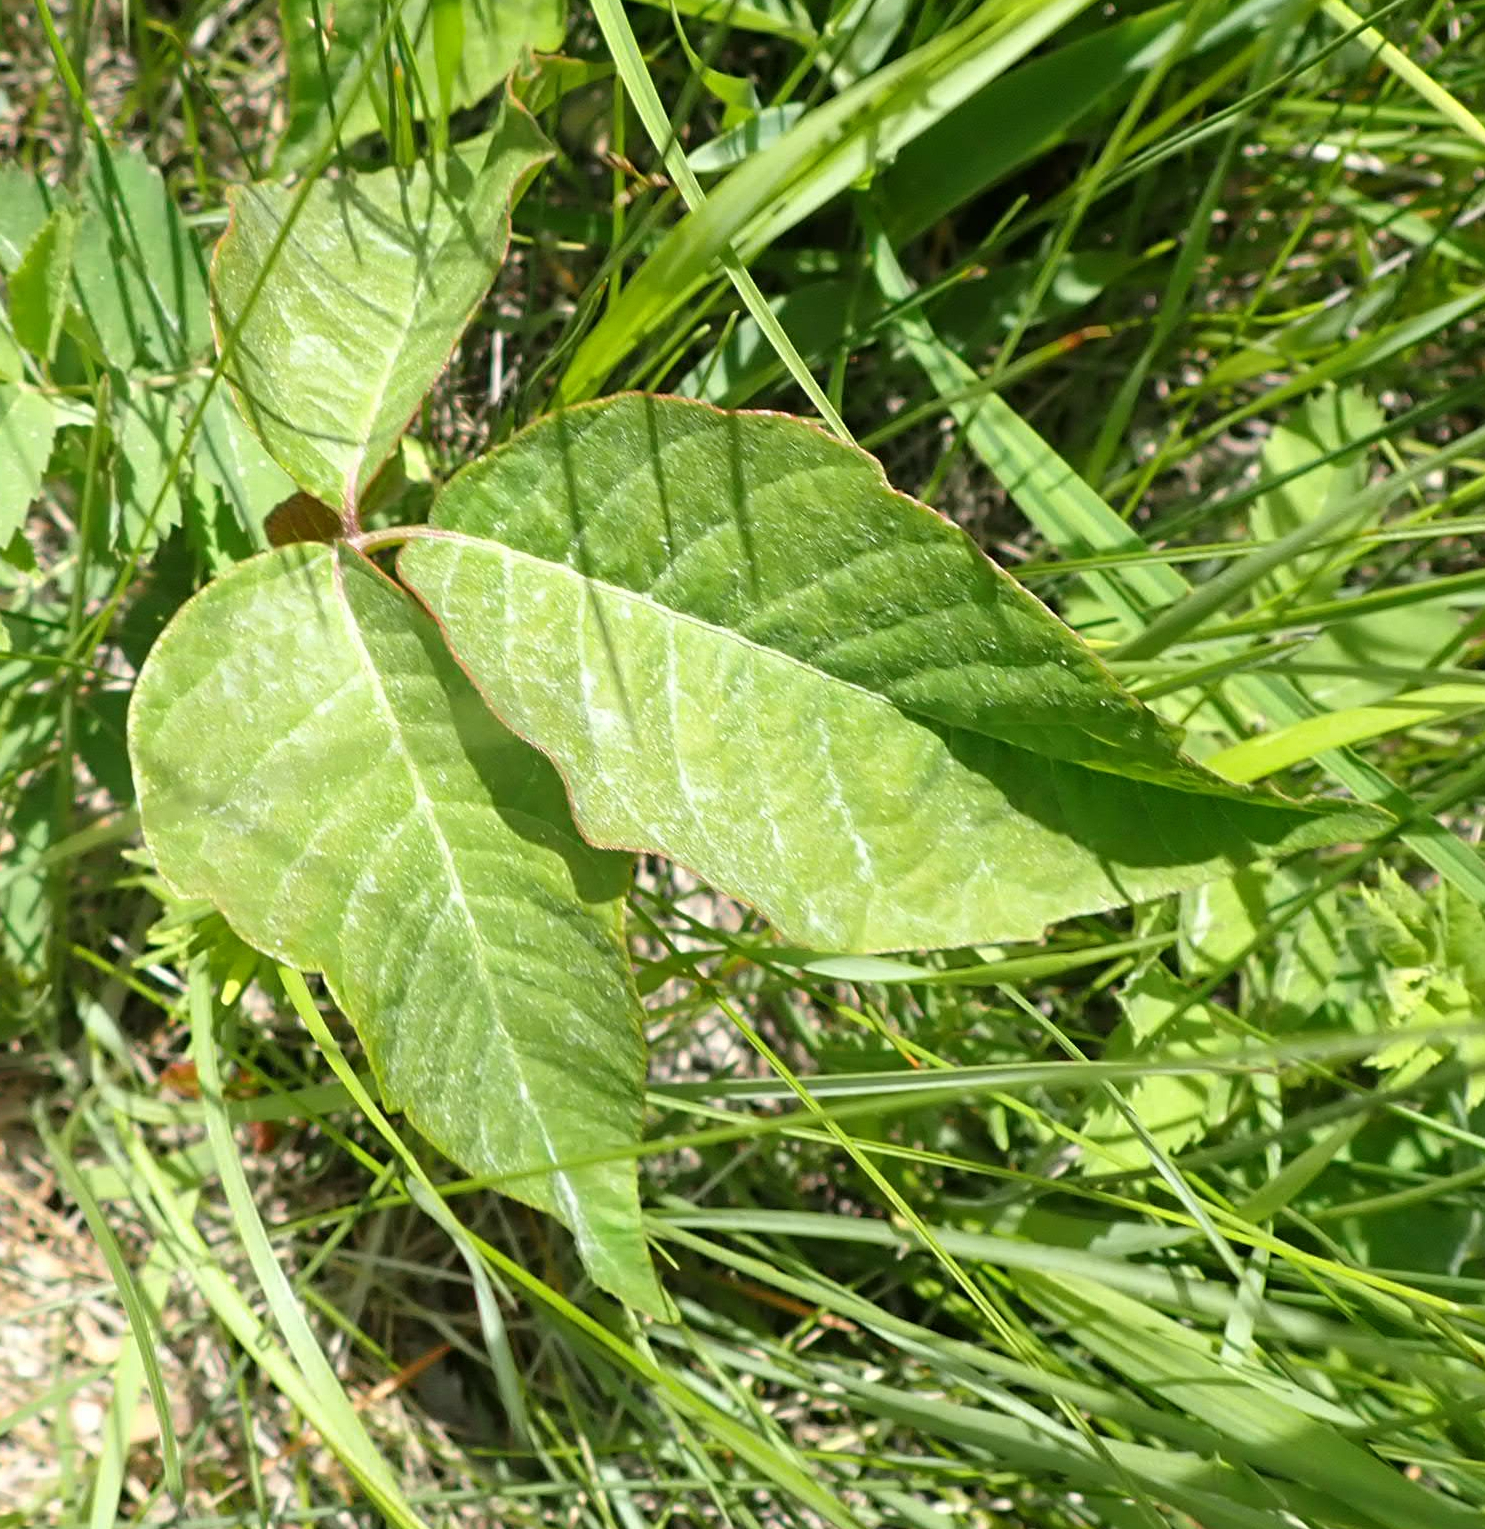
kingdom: Plantae
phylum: Tracheophyta
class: Magnoliopsida
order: Sapindales
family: Anacardiaceae
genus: Toxicodendron
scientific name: Toxicodendron rydbergii
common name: Rydberg's poison-ivy
